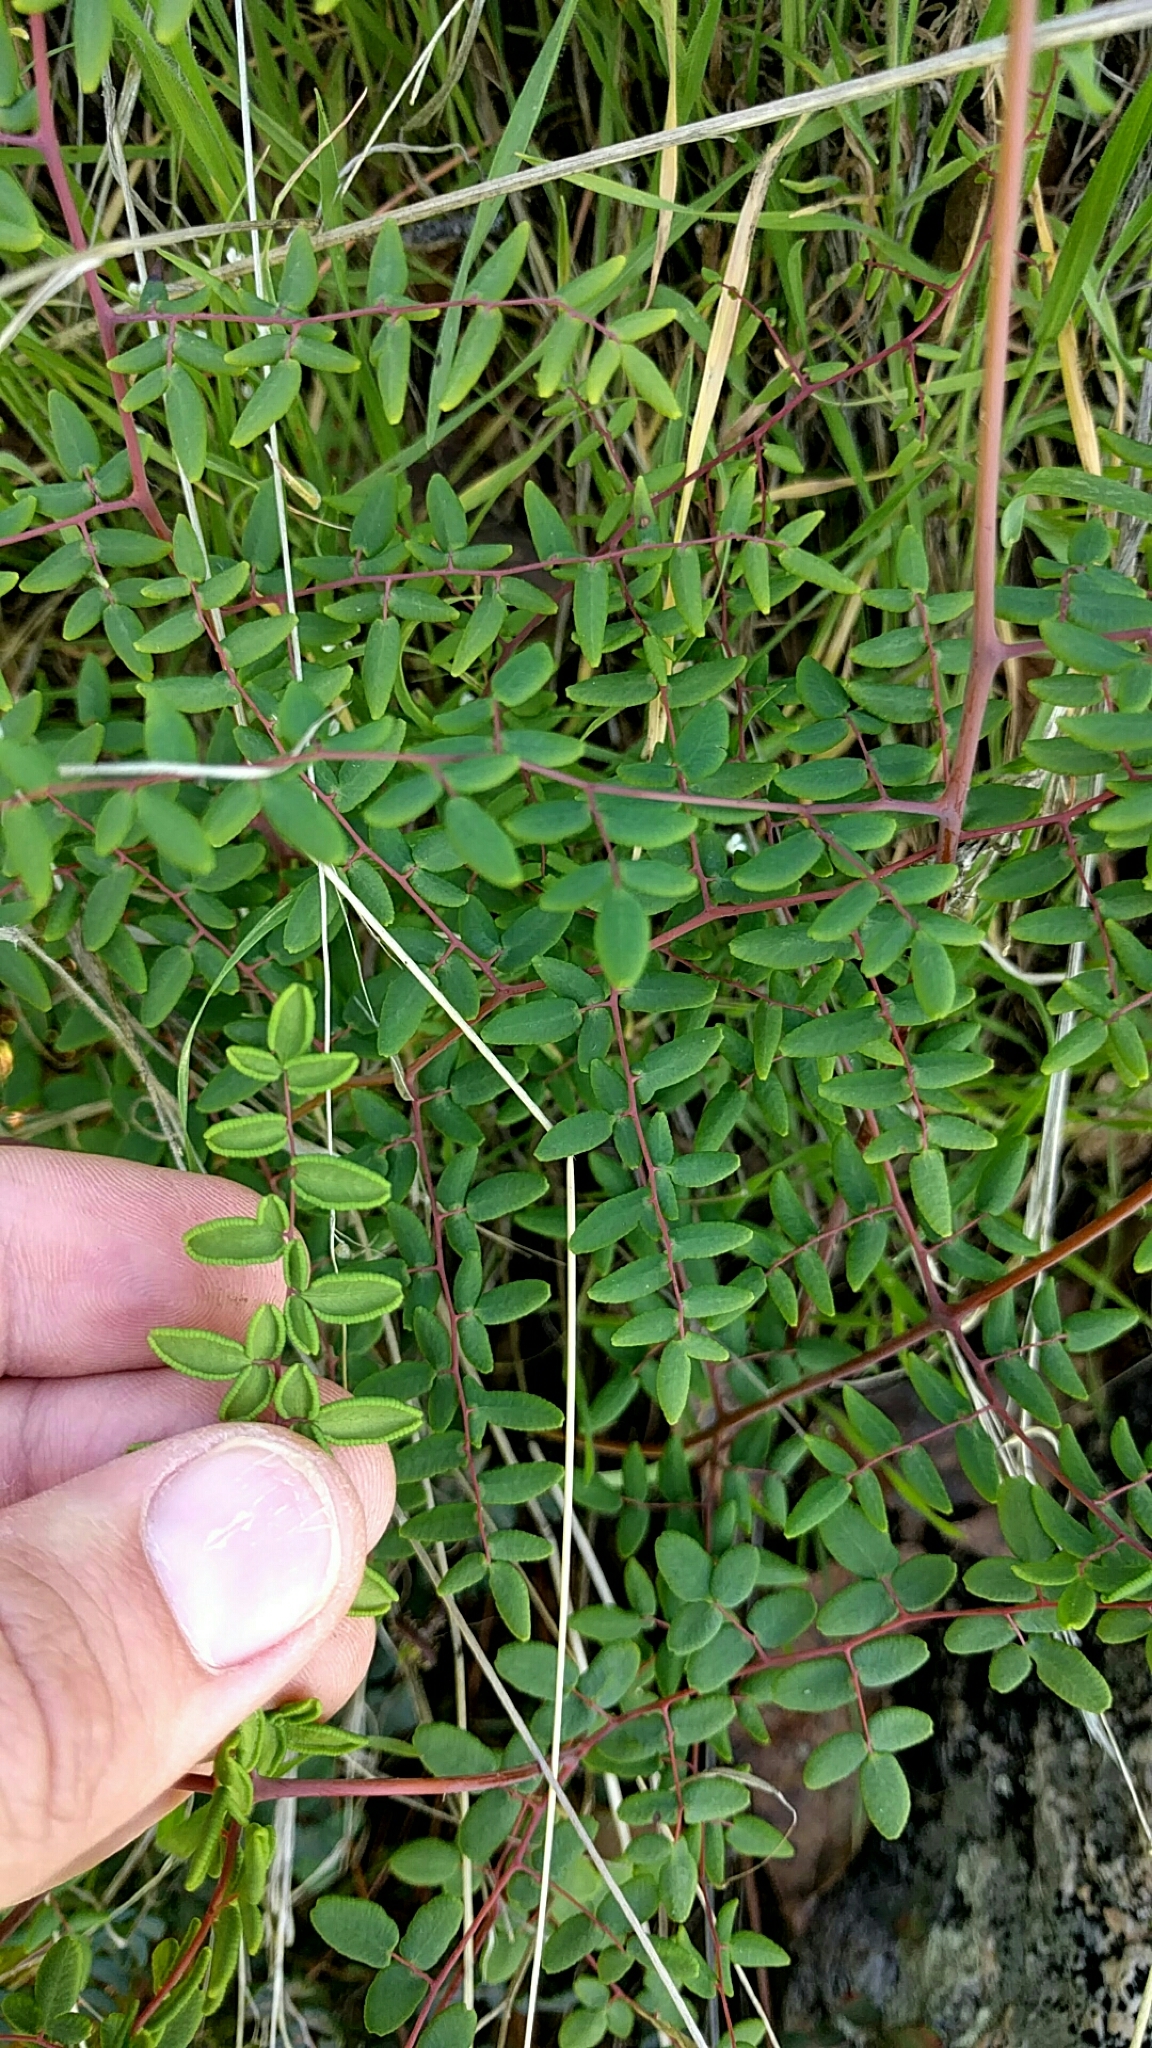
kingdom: Plantae
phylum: Tracheophyta
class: Polypodiopsida
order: Polypodiales
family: Pteridaceae
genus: Pellaea
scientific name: Pellaea andromedifolia
